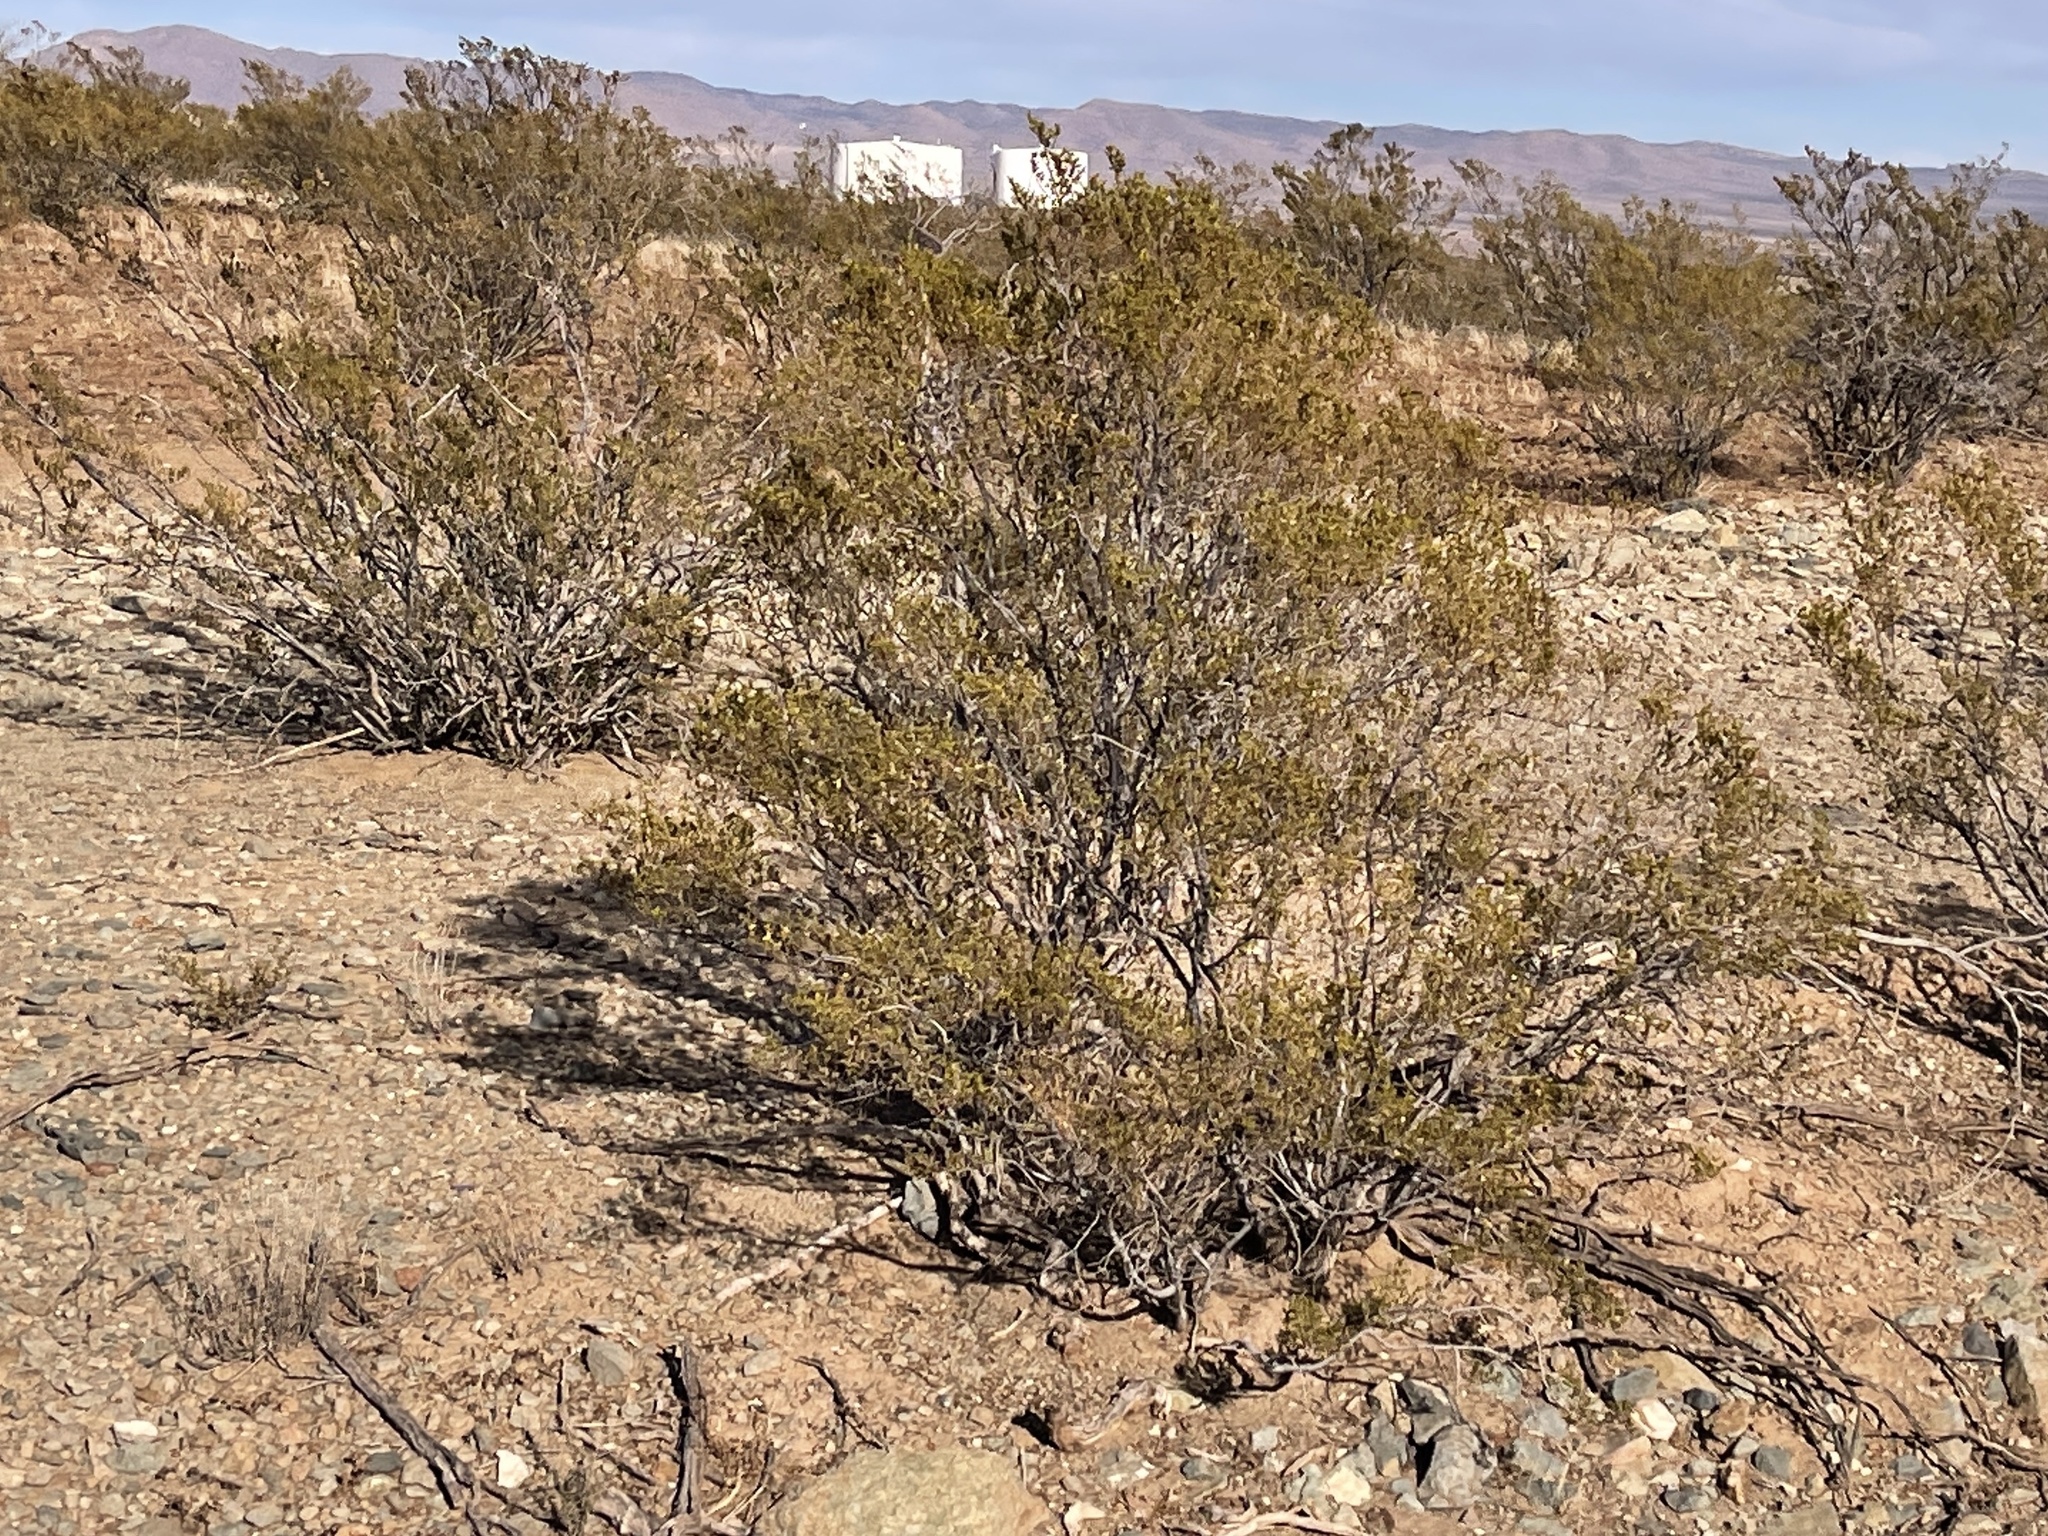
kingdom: Plantae
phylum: Tracheophyta
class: Magnoliopsida
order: Zygophyllales
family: Zygophyllaceae
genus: Larrea
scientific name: Larrea tridentata
